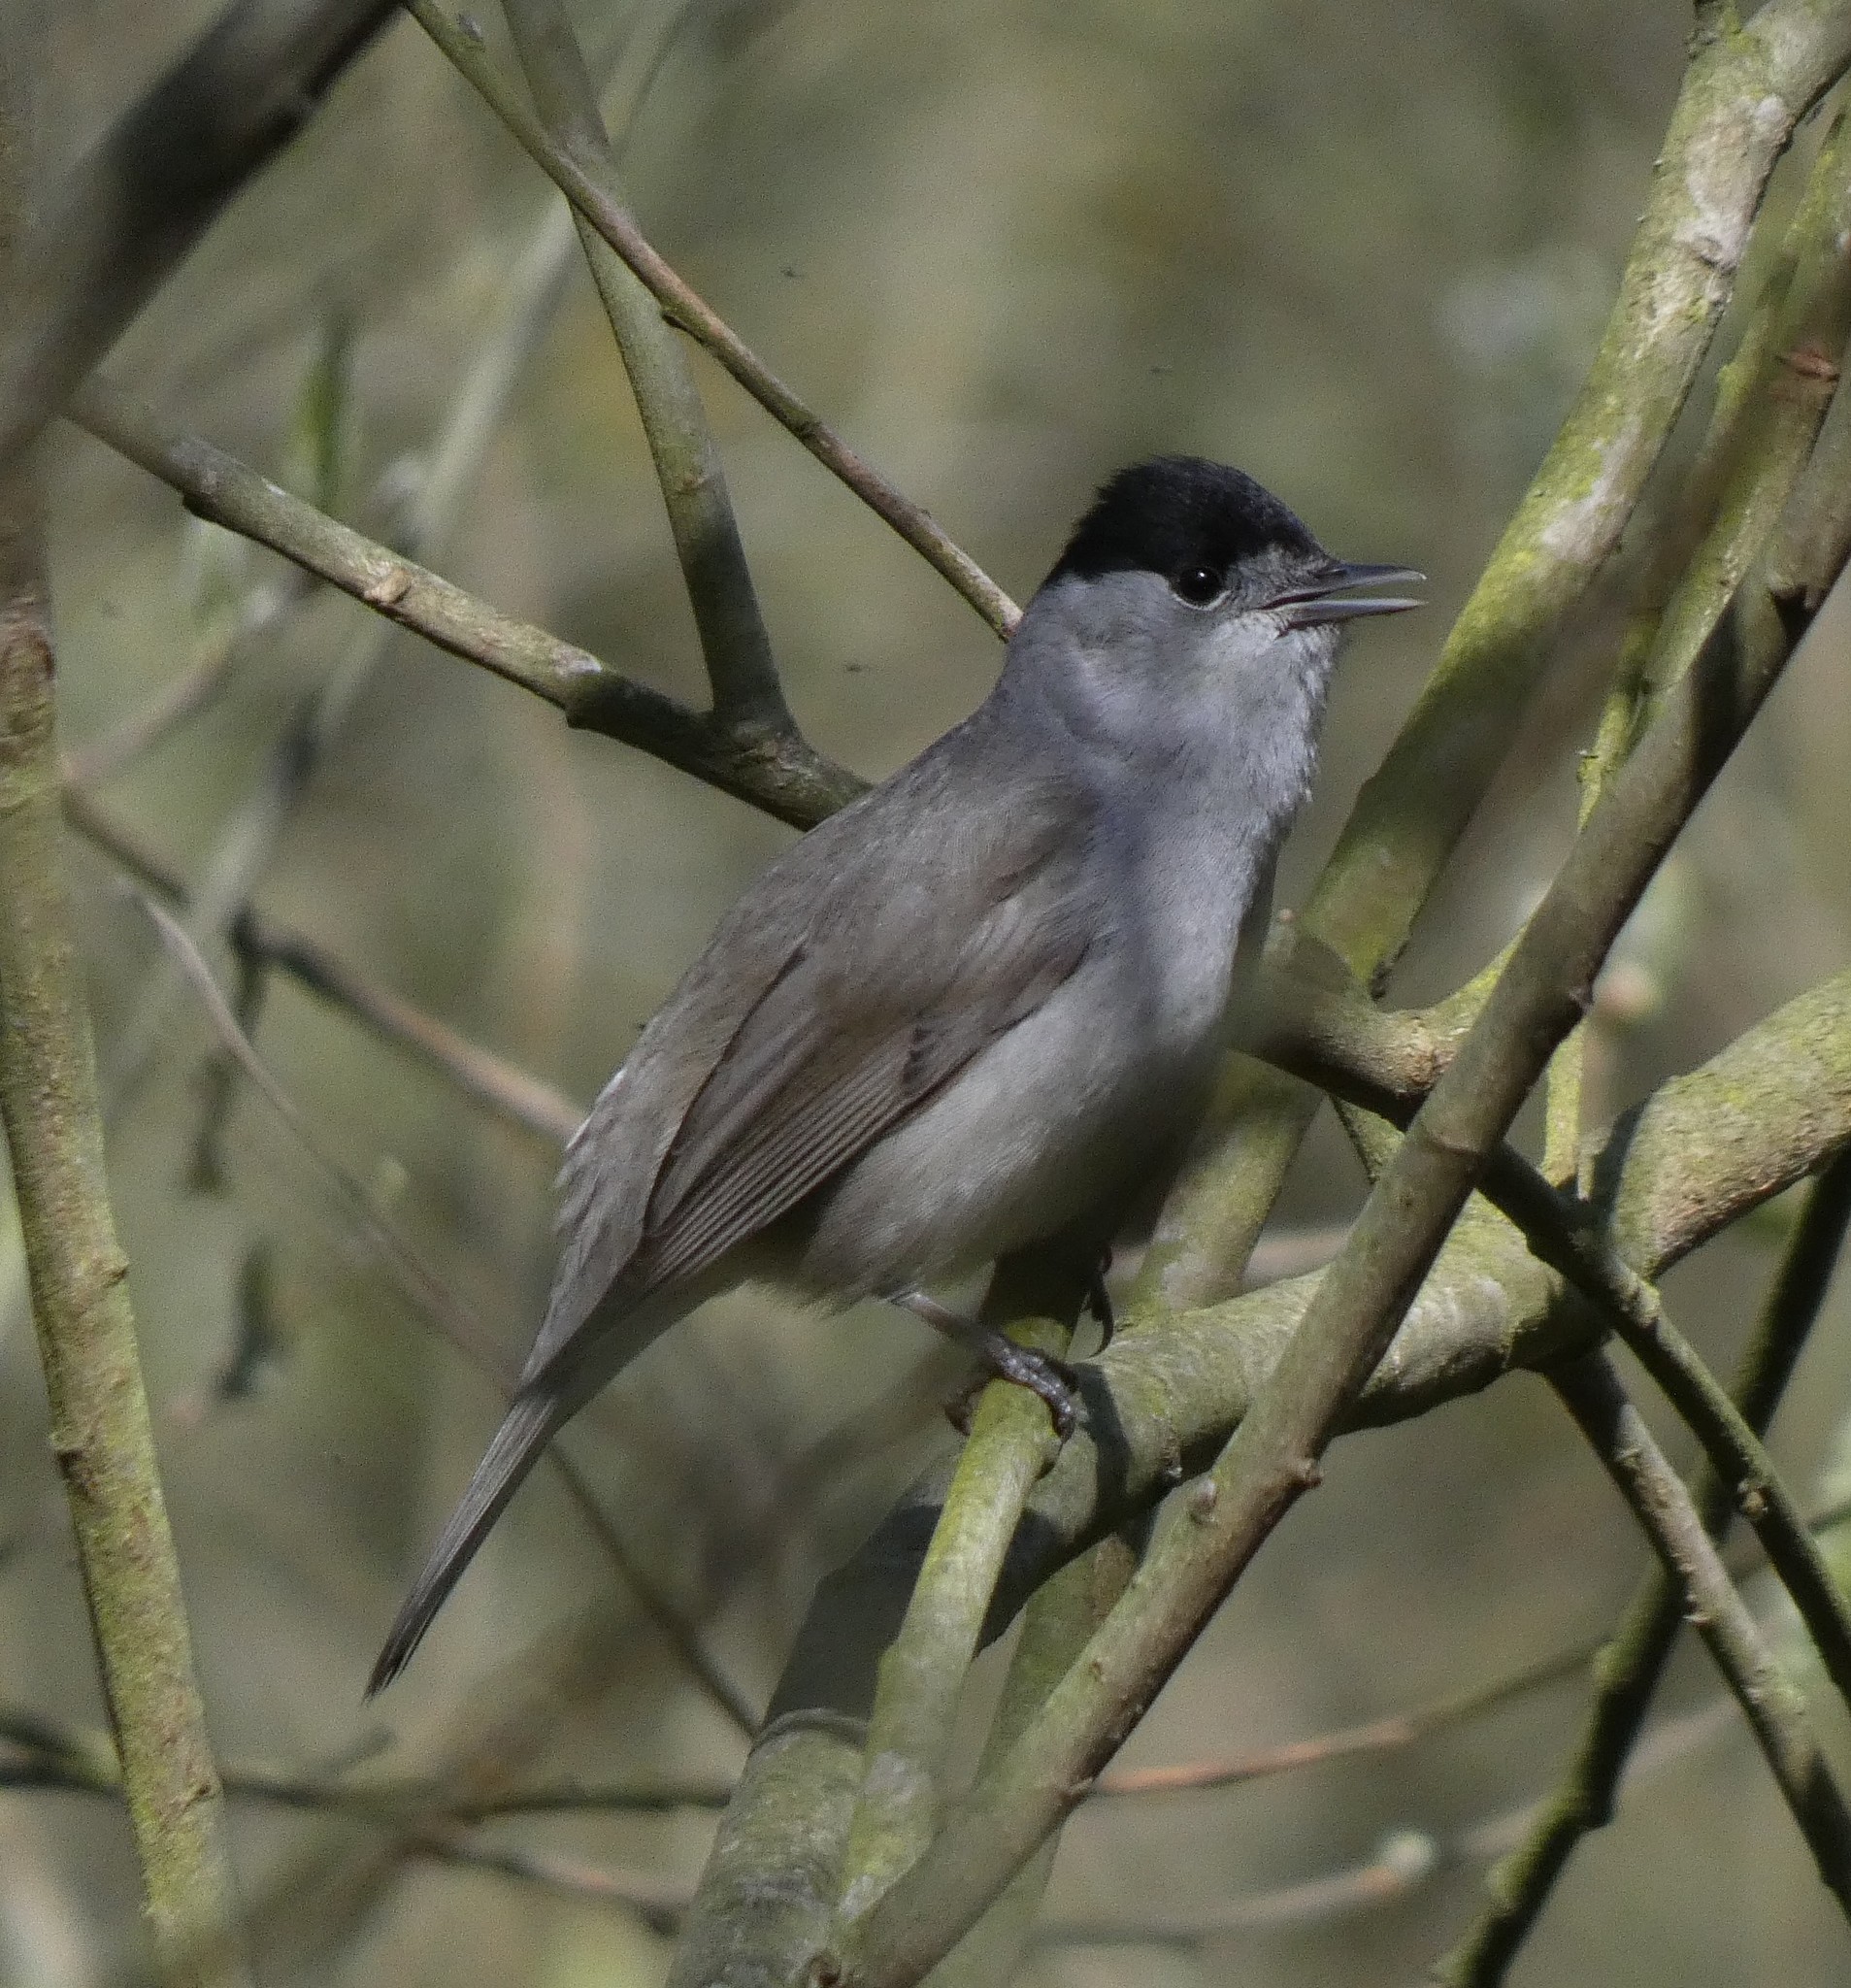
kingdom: Animalia
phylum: Chordata
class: Aves
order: Passeriformes
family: Sylviidae
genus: Sylvia
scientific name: Sylvia atricapilla
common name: Eurasian blackcap
